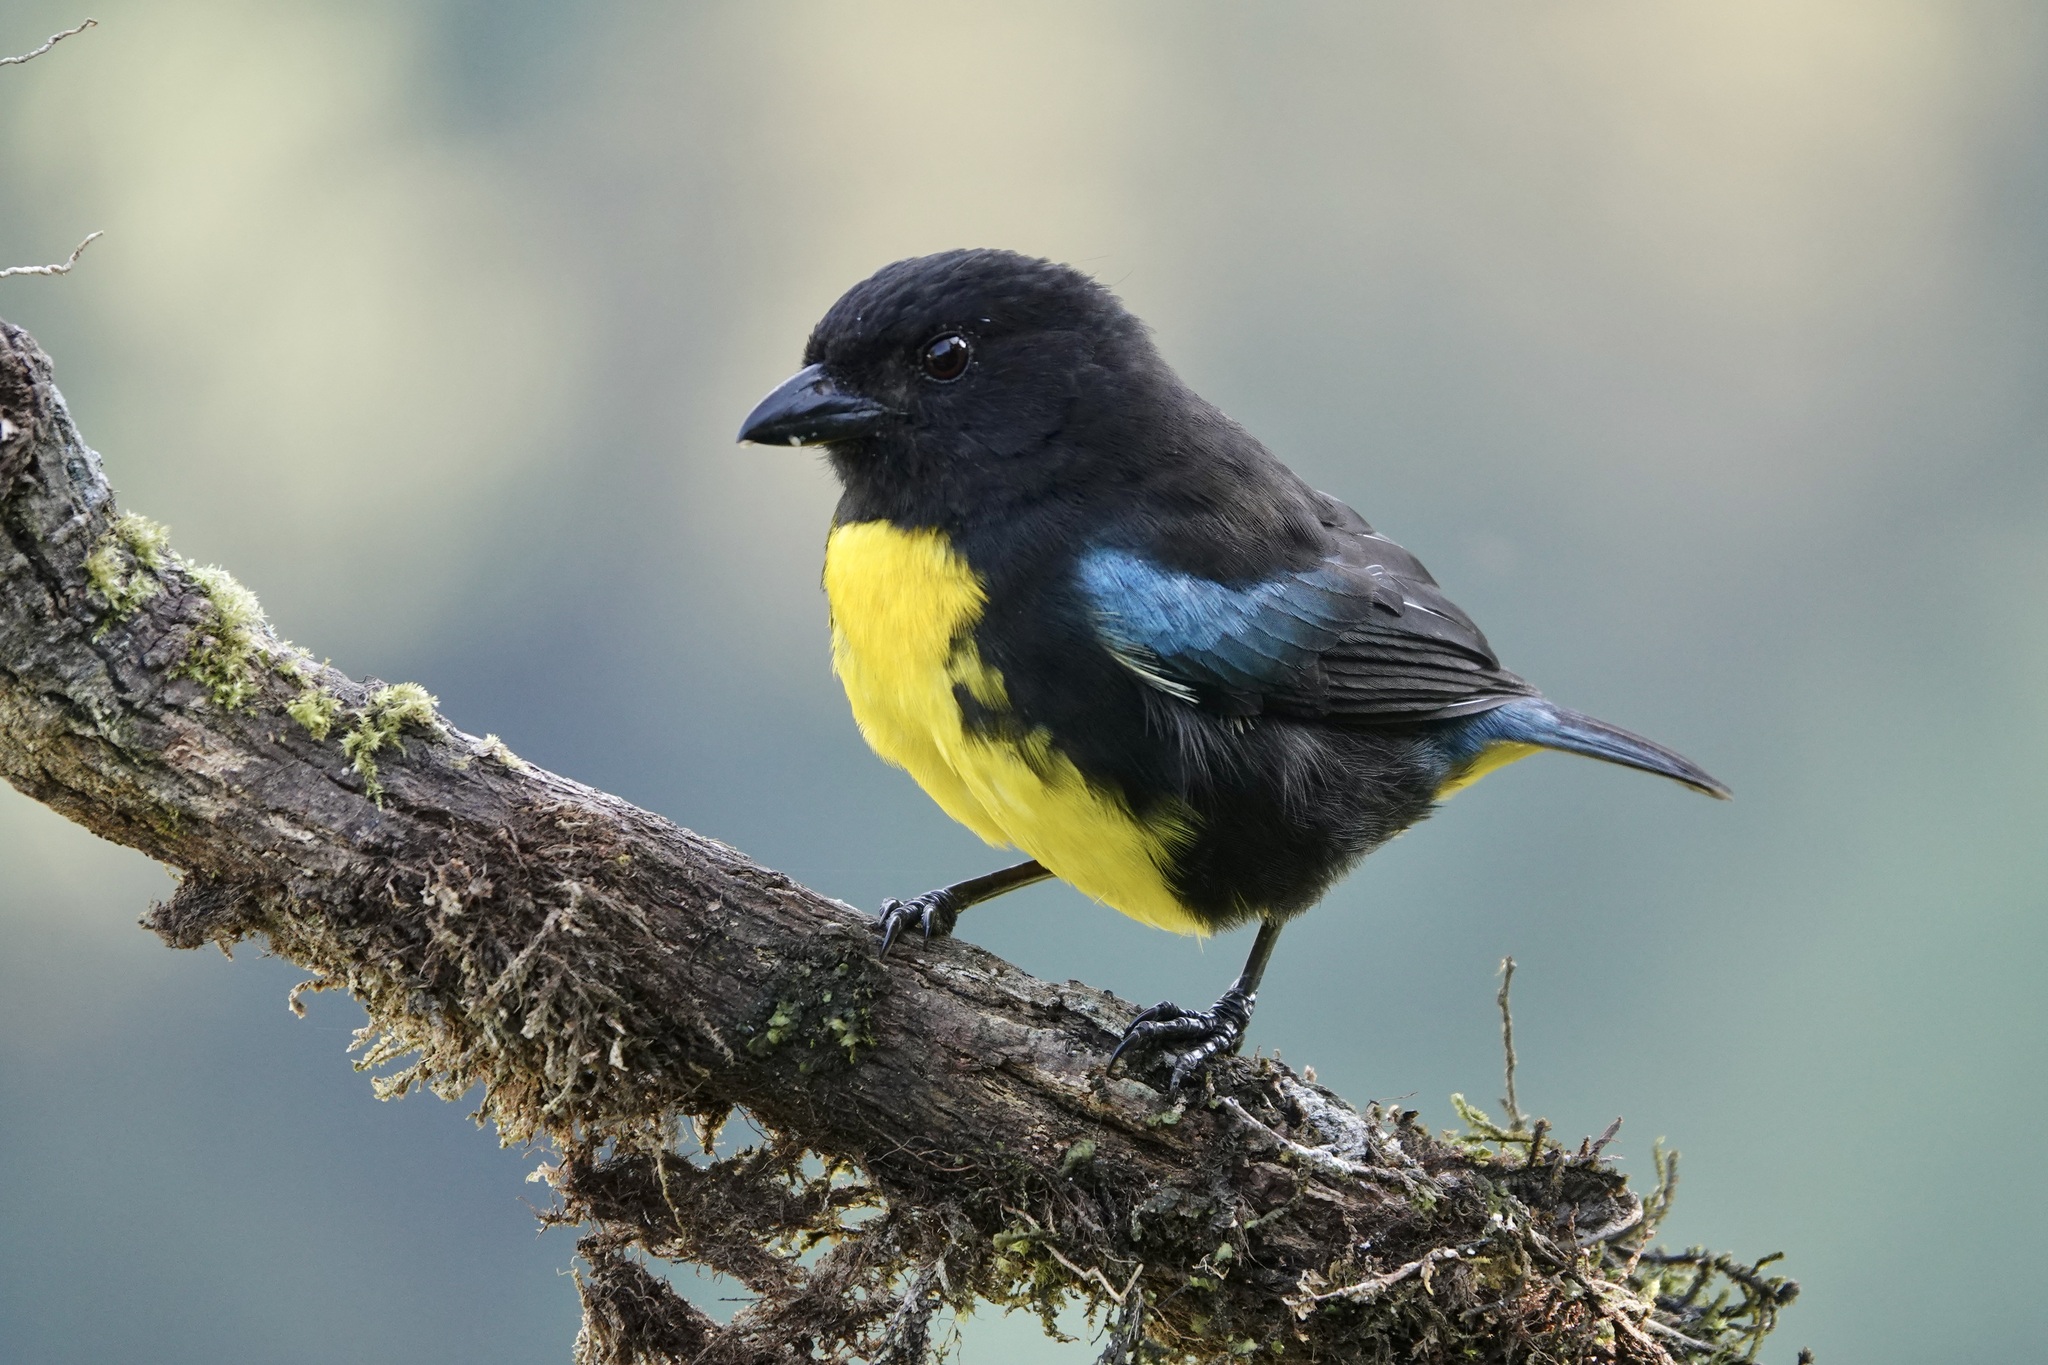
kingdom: Animalia
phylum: Chordata
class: Aves
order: Passeriformes
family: Thraupidae
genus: Bangsia
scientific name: Bangsia melanochlamys
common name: Black-and-gold tanager
